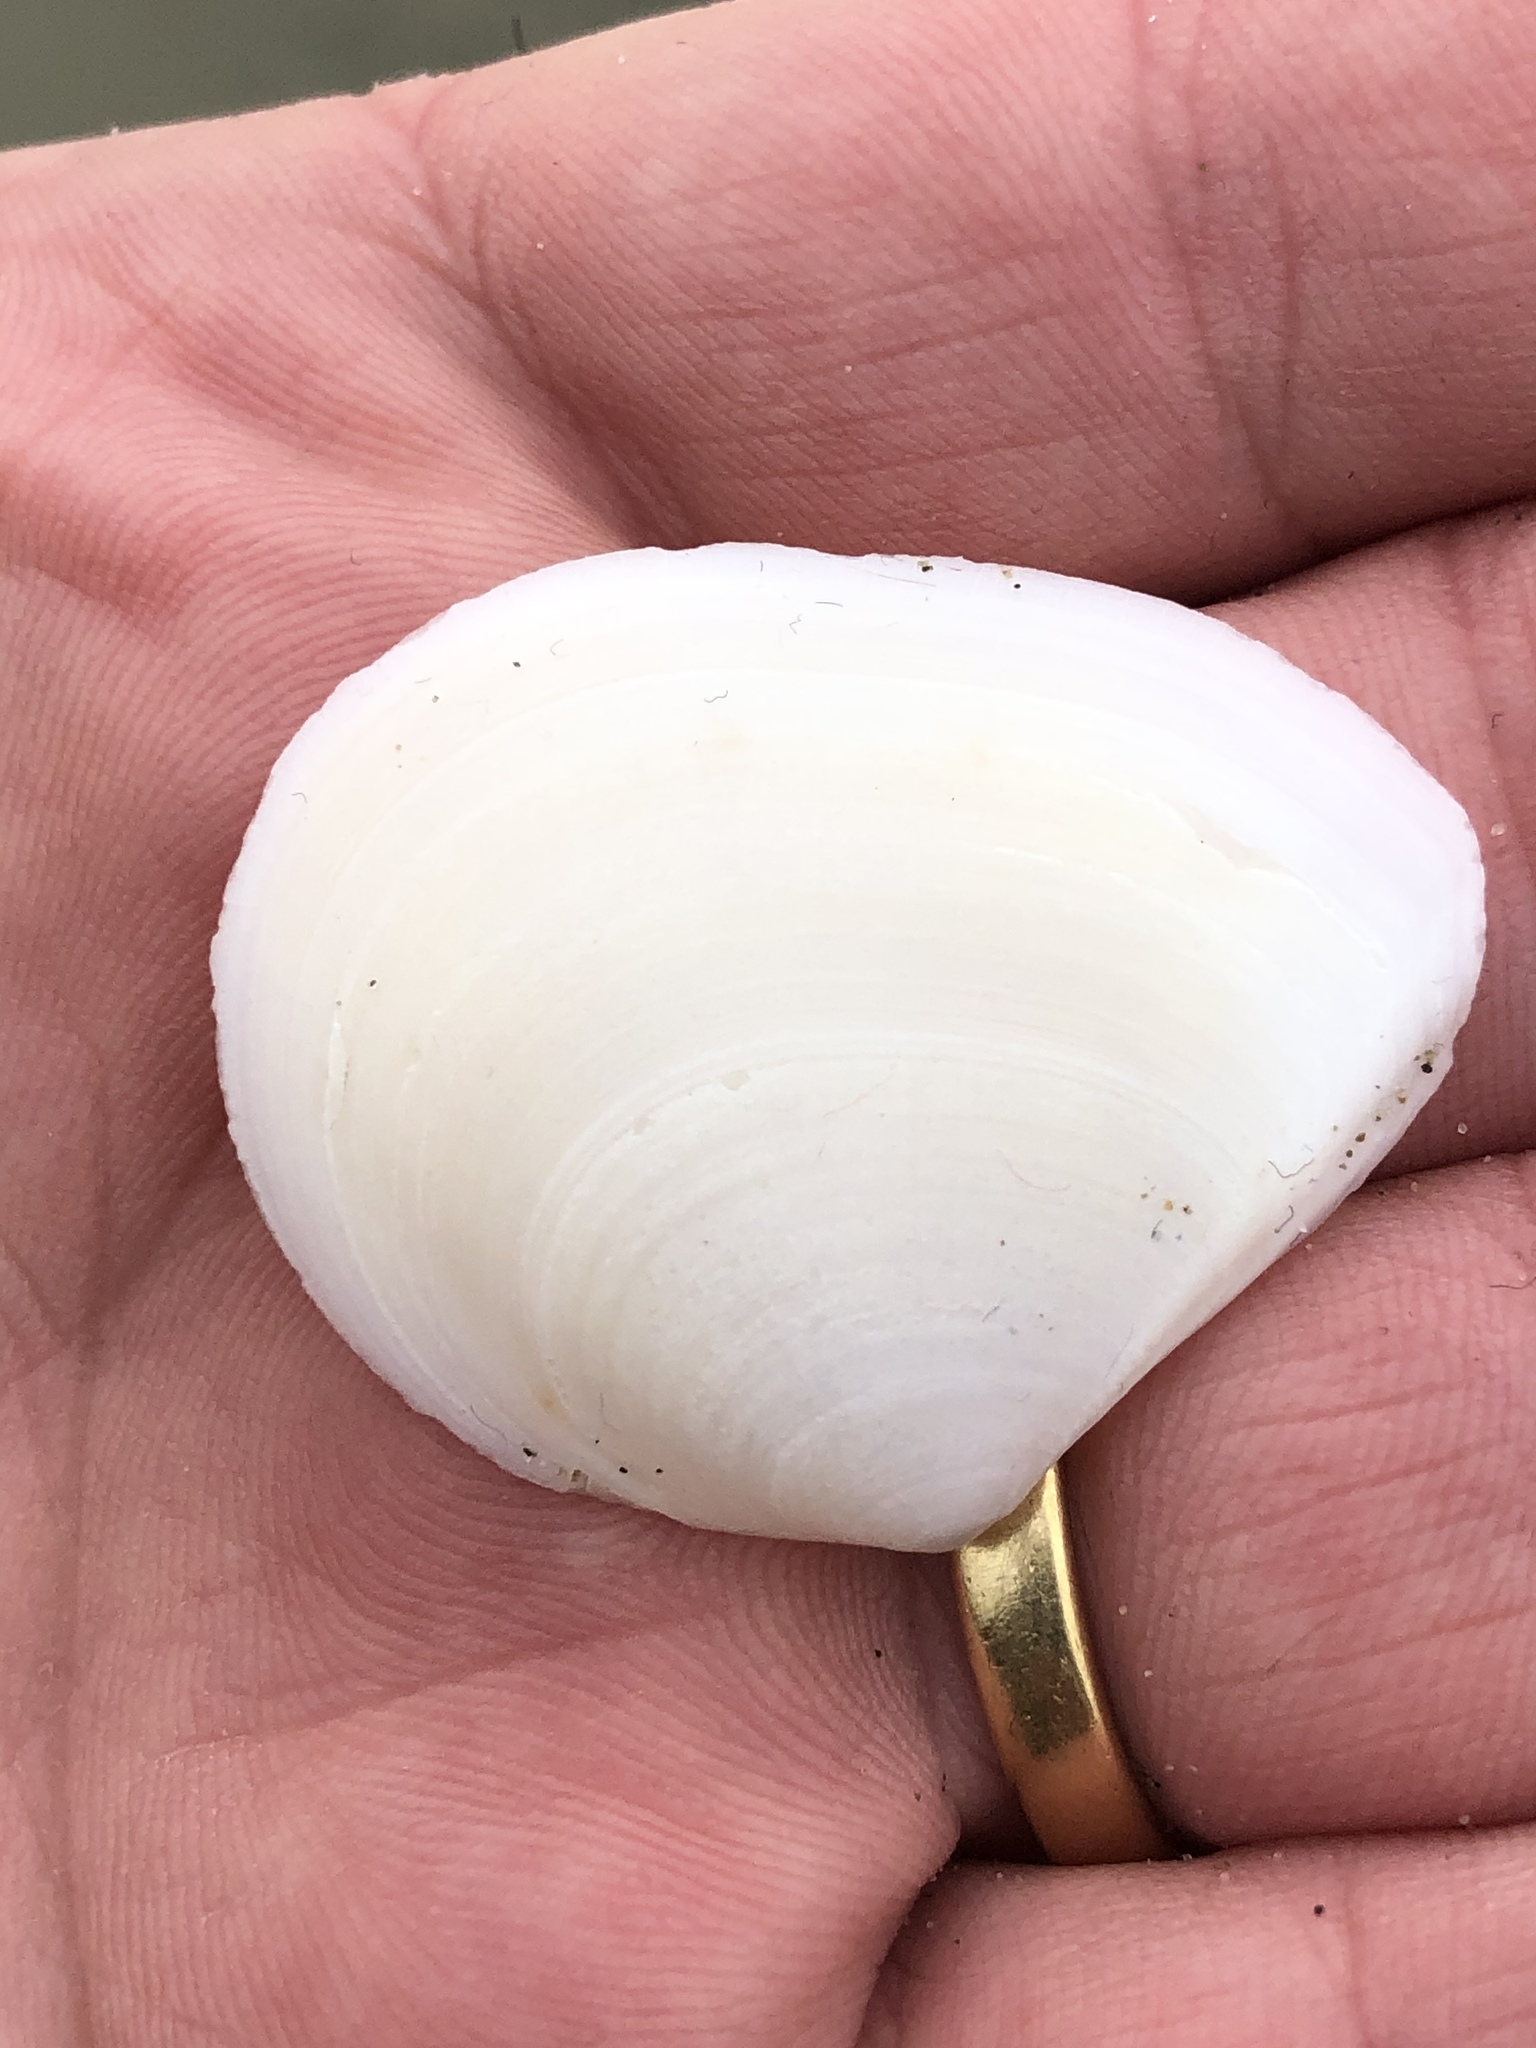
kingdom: Animalia
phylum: Mollusca
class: Bivalvia
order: Cardiida
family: Tellinidae
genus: Macomona
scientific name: Macomona liliana
